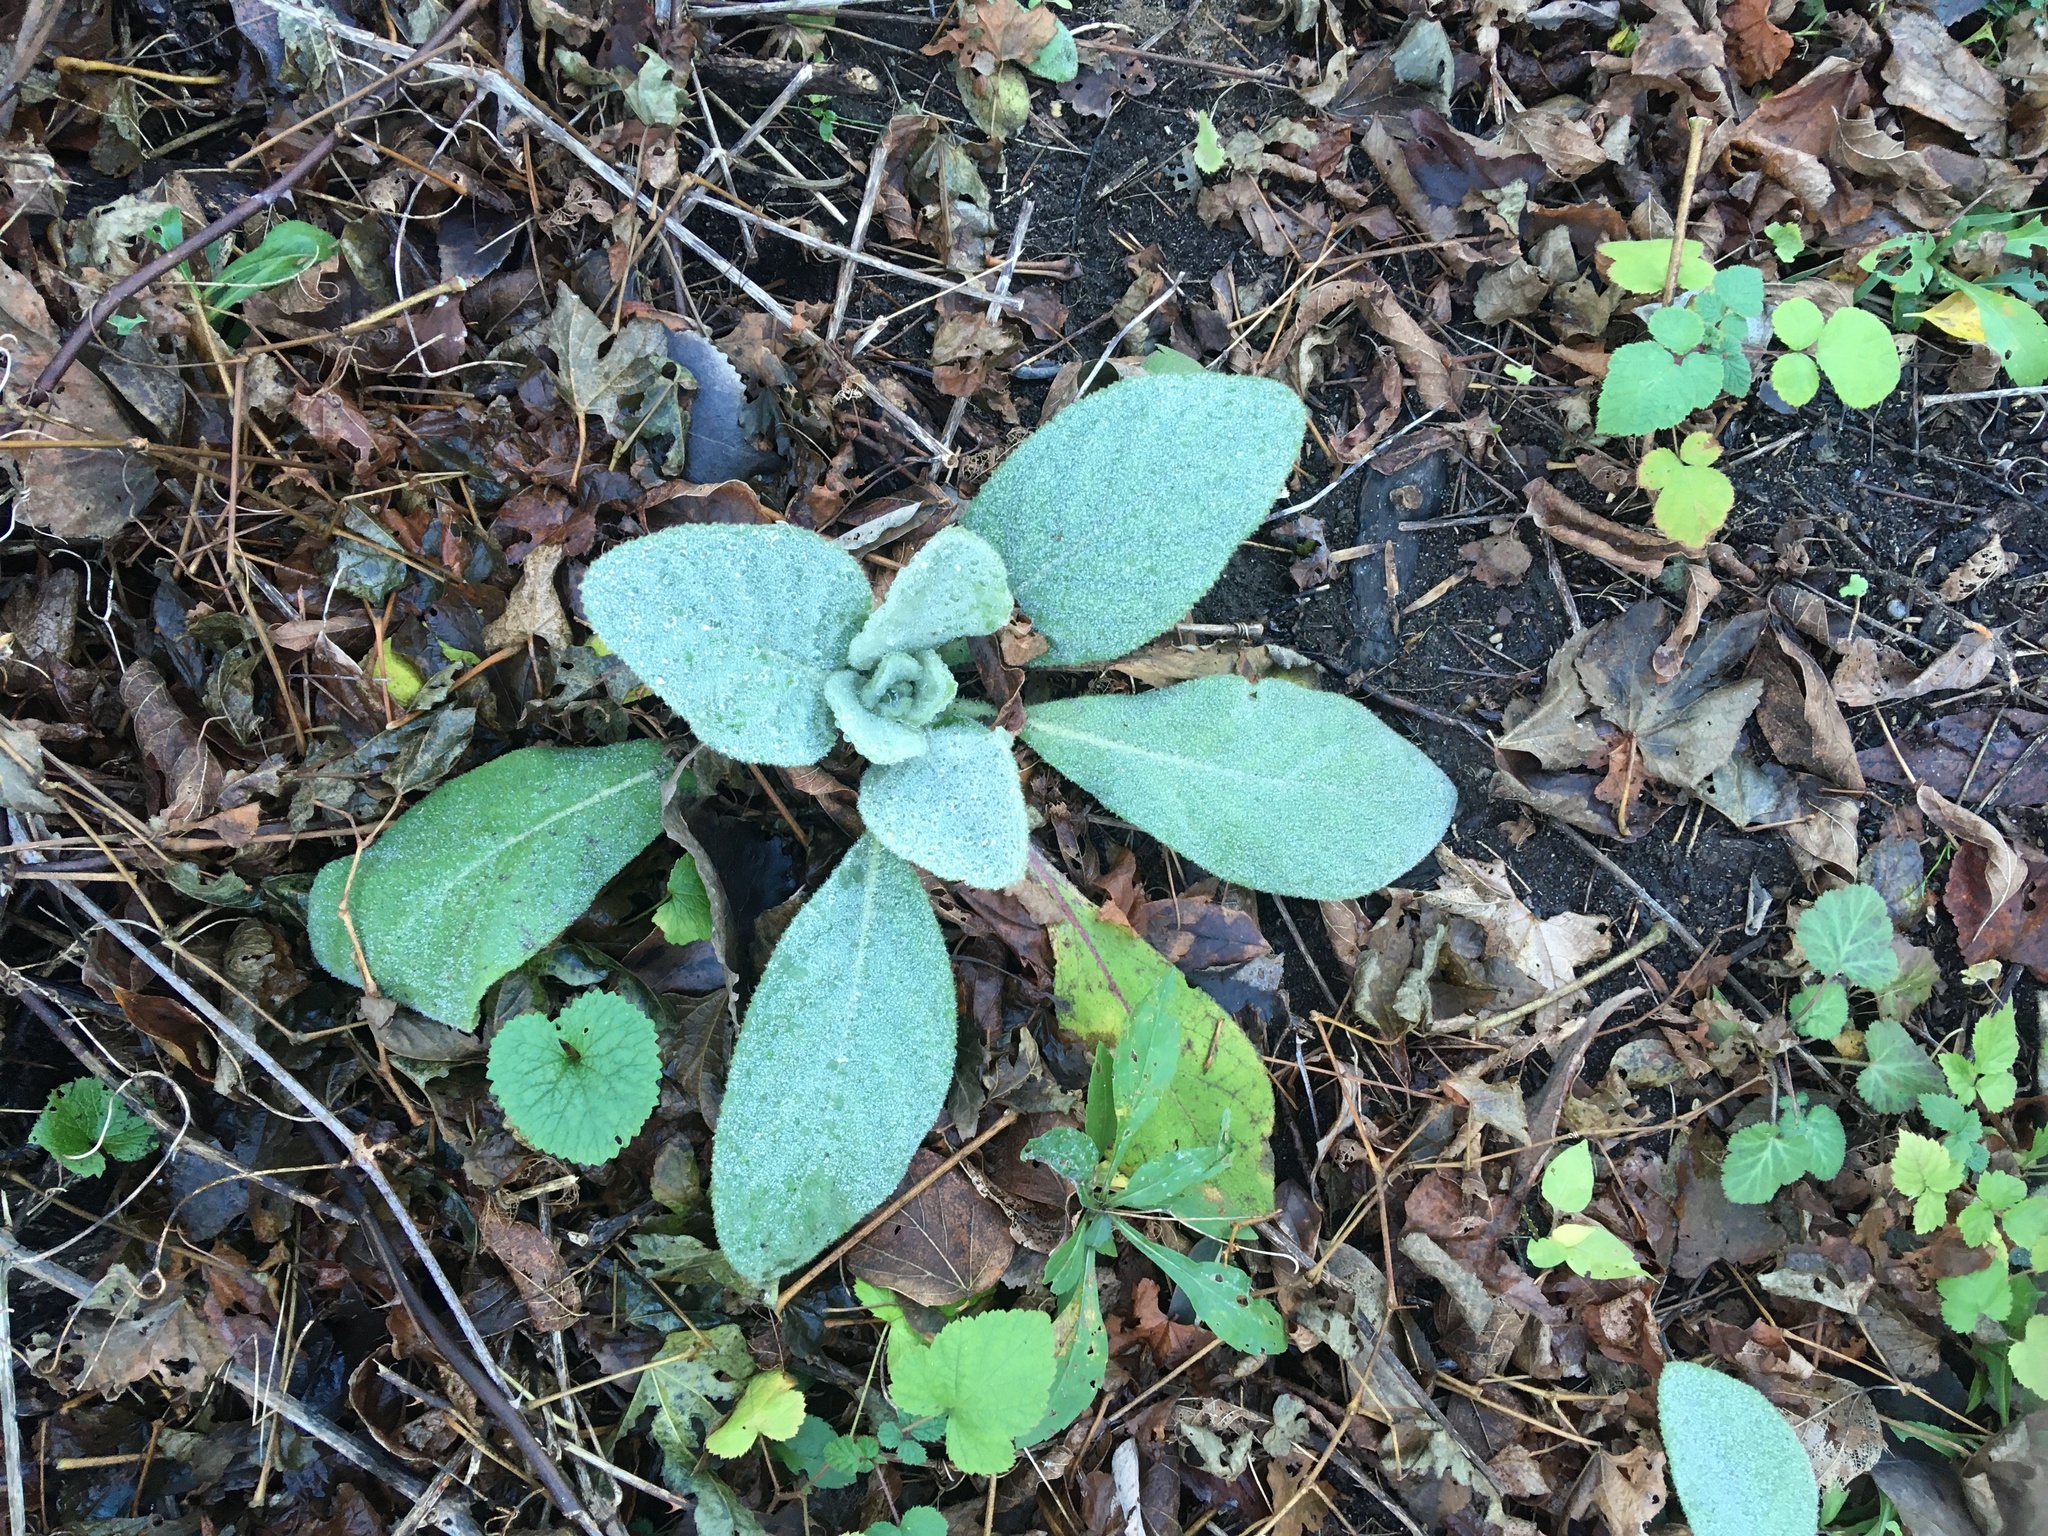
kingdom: Plantae
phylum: Tracheophyta
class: Magnoliopsida
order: Lamiales
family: Scrophulariaceae
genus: Verbascum
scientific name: Verbascum thapsus
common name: Common mullein
